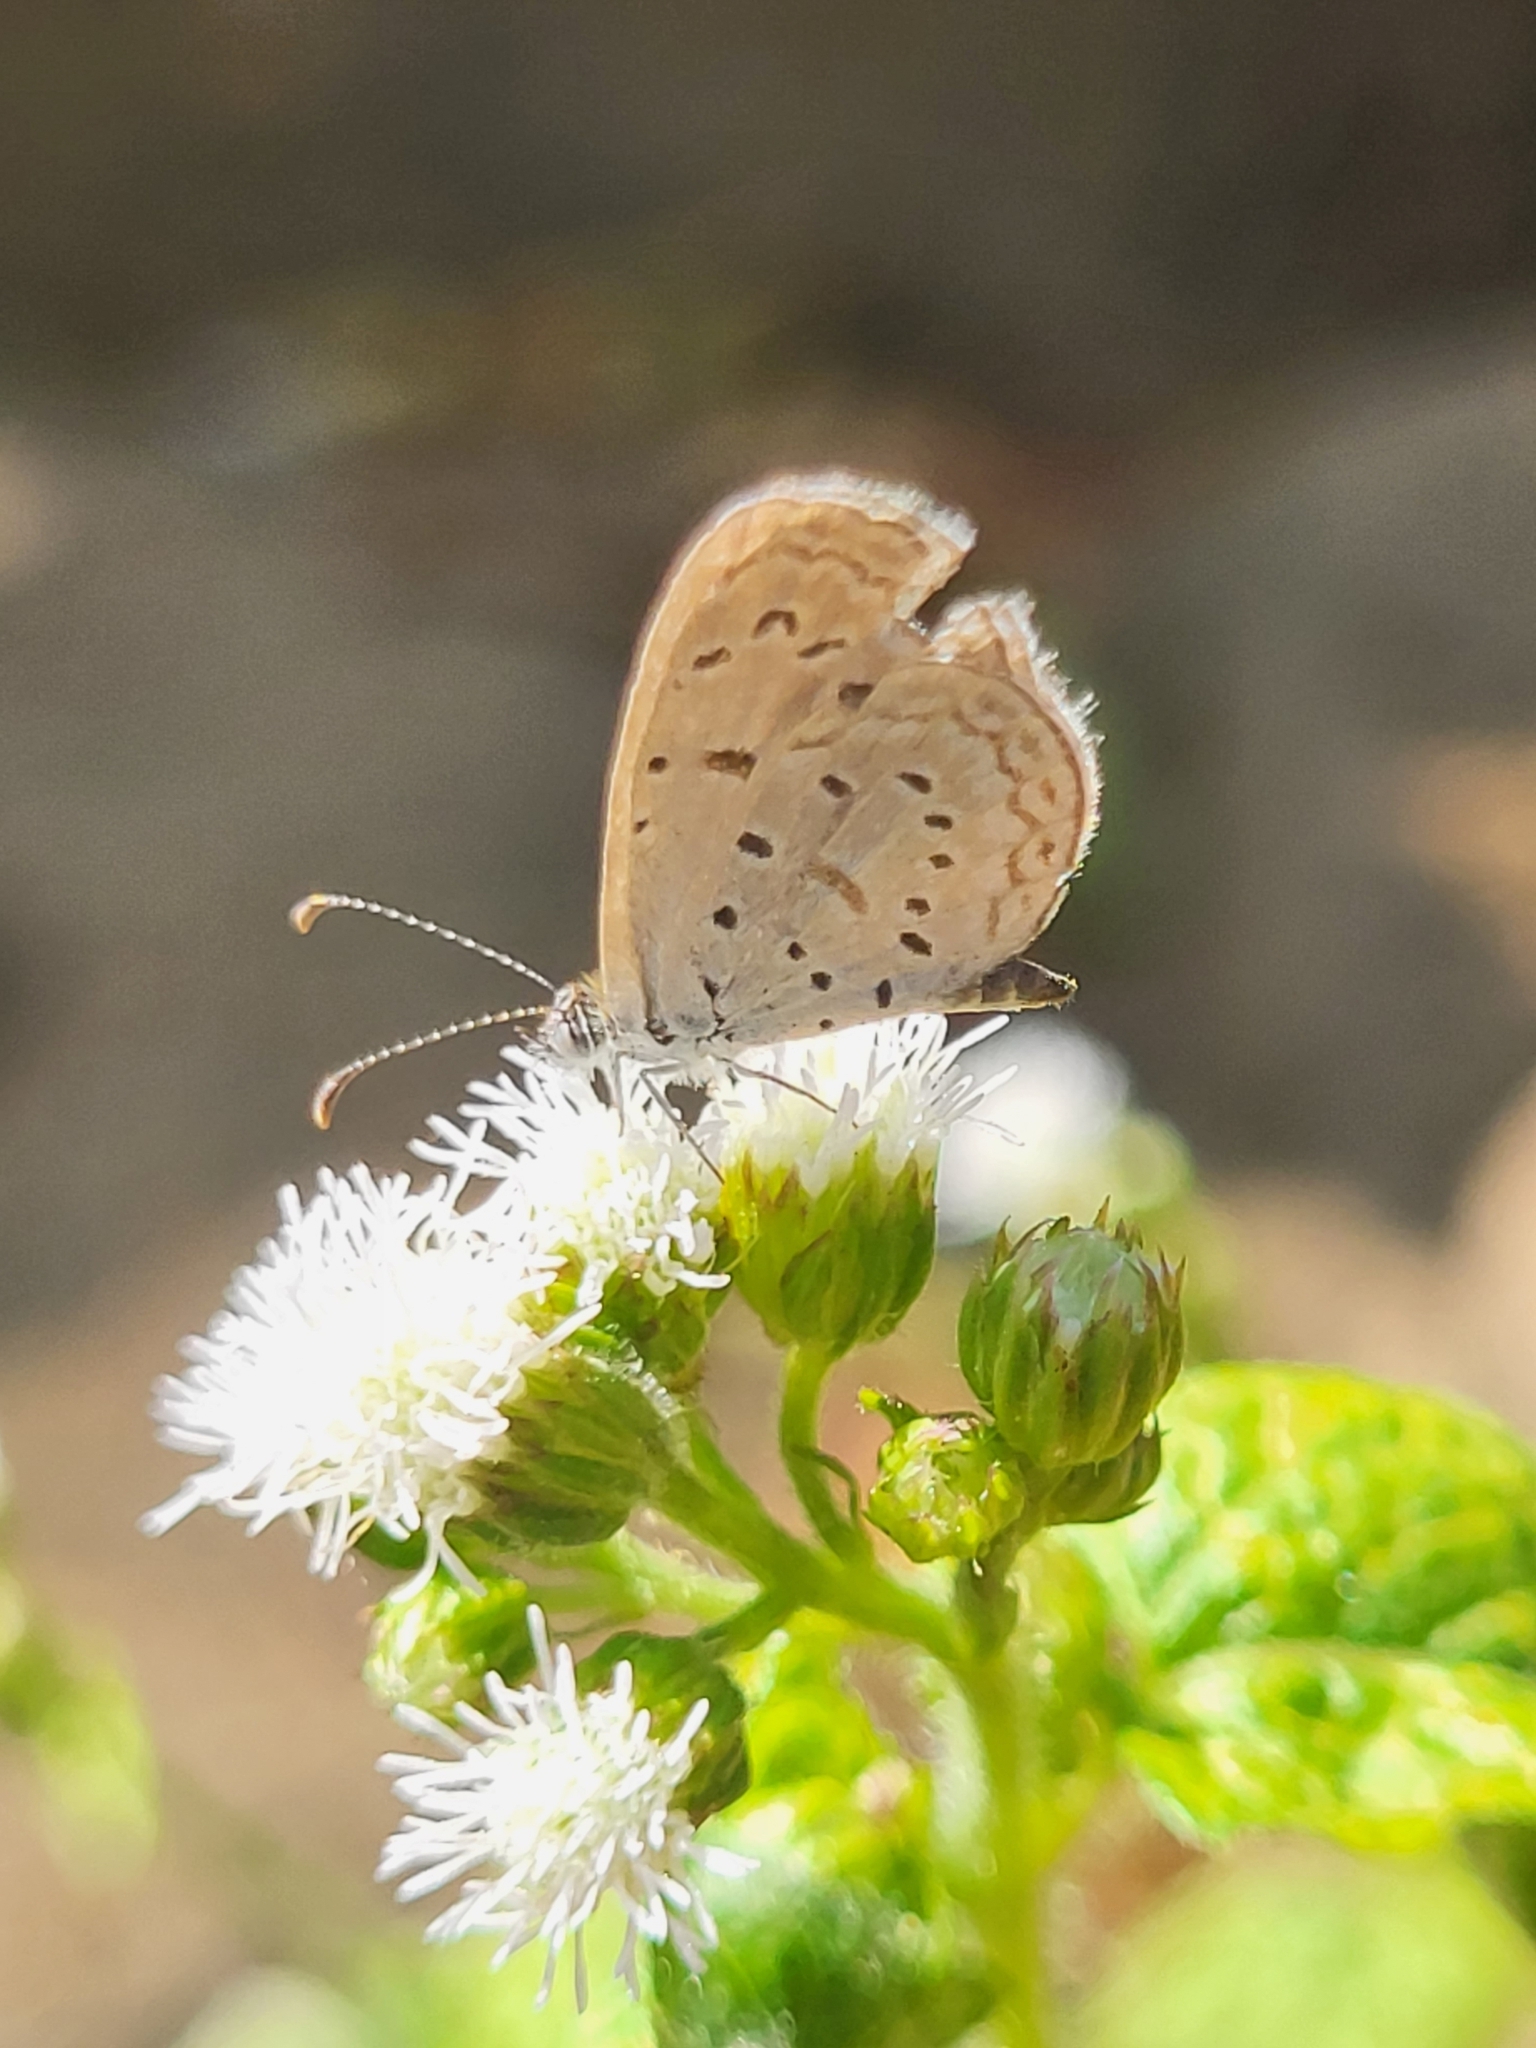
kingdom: Animalia
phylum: Arthropoda
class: Insecta
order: Lepidoptera
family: Lycaenidae
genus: Zizula
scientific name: Zizula hylax
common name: Gaika blue
